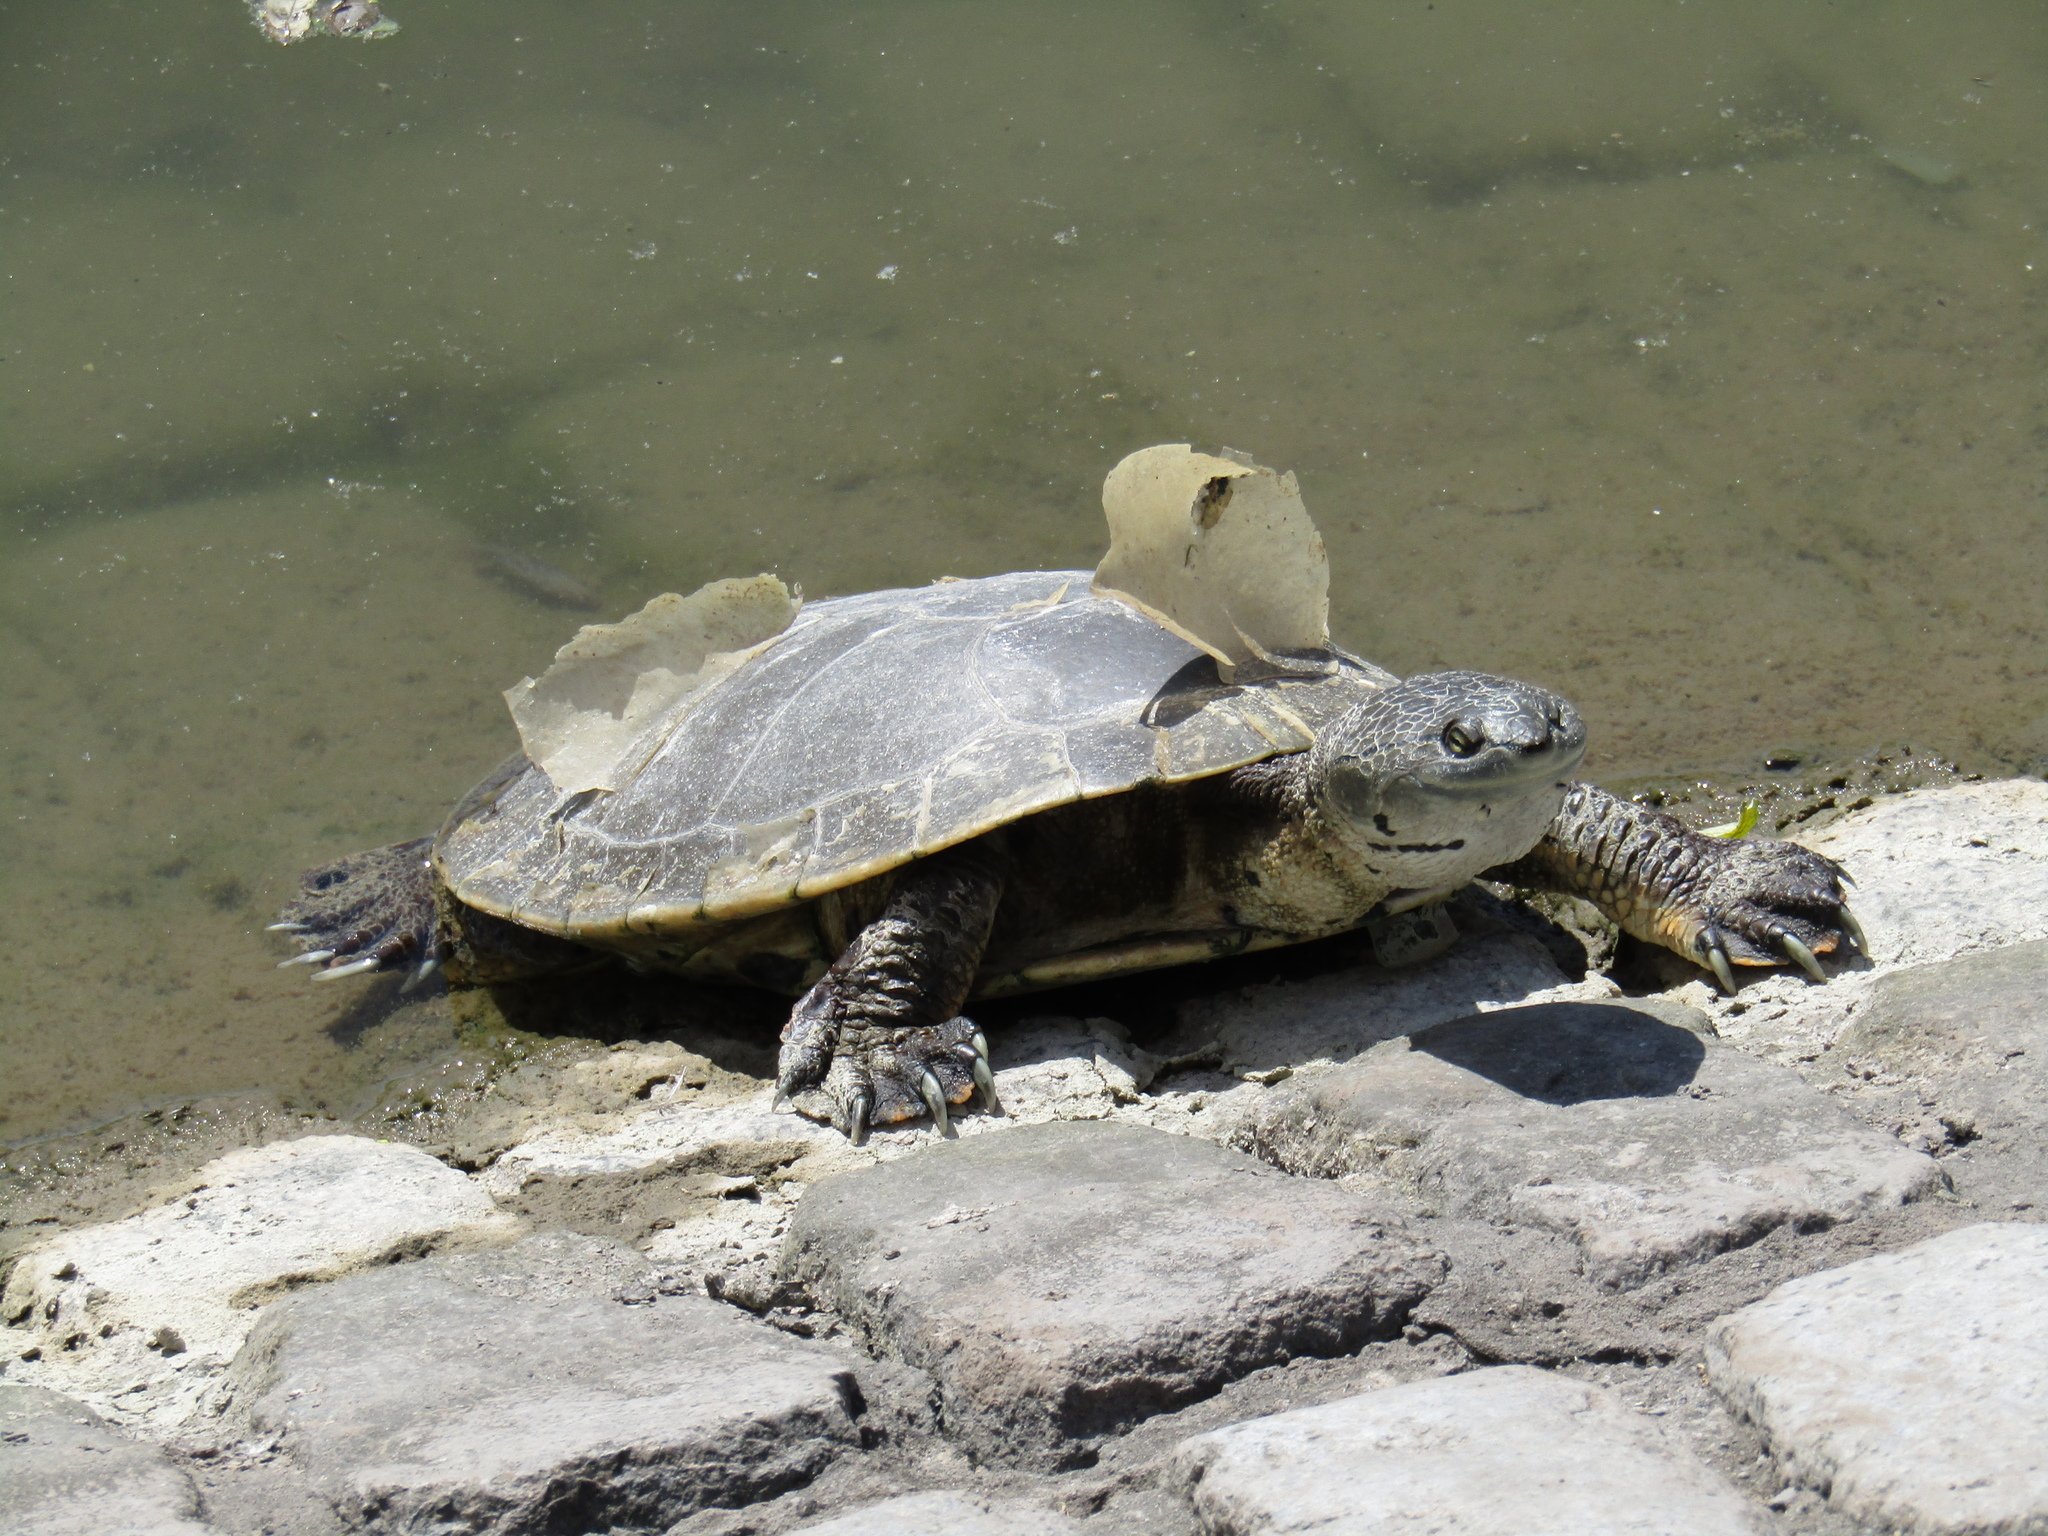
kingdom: Animalia
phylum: Chordata
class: Testudines
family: Chelidae
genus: Phrynops
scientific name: Phrynops hilarii
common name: Side-necked turtle of saint hillaire
